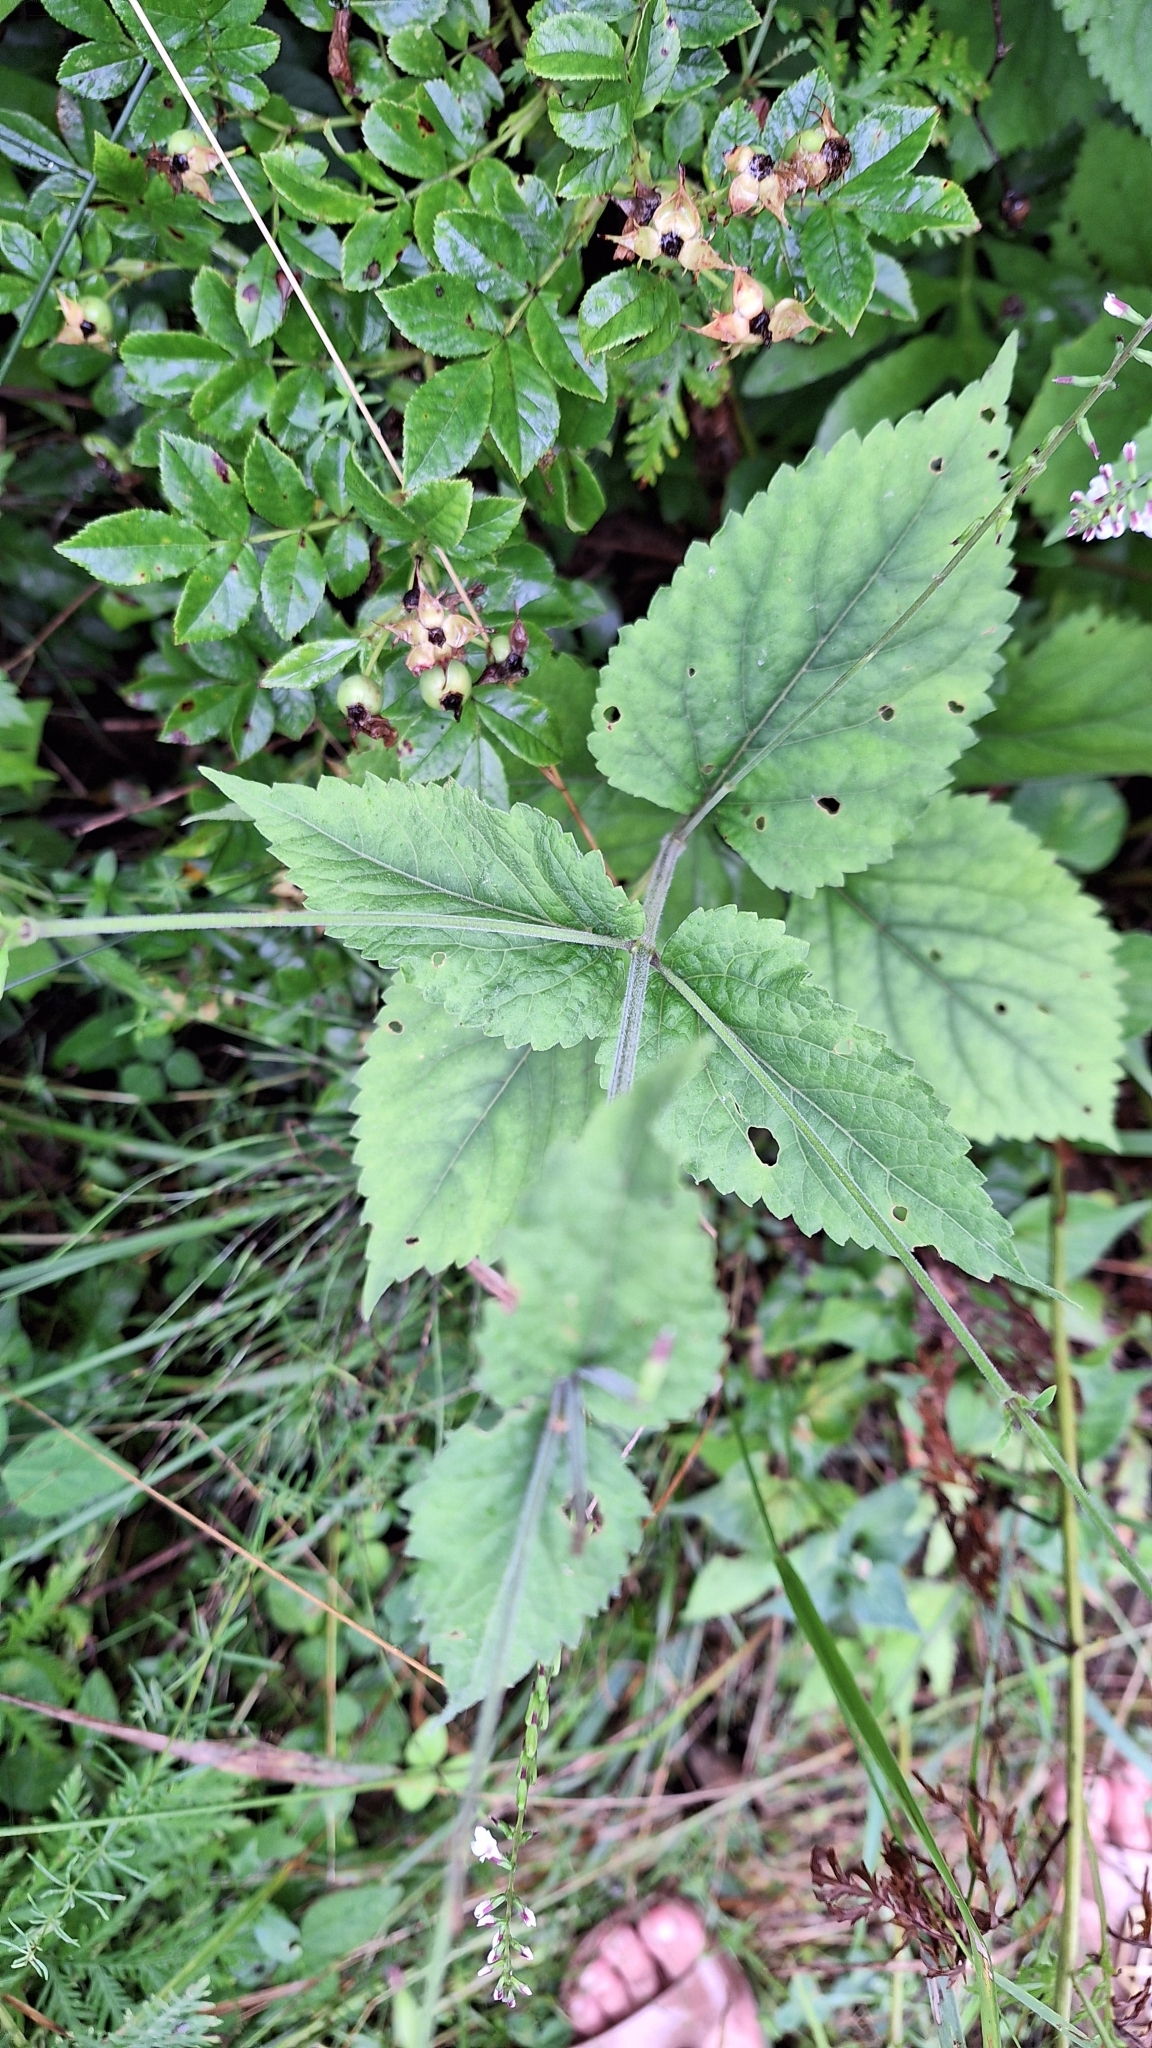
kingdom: Plantae
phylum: Tracheophyta
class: Magnoliopsida
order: Lamiales
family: Phrymaceae
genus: Phryma
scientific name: Phryma nana
